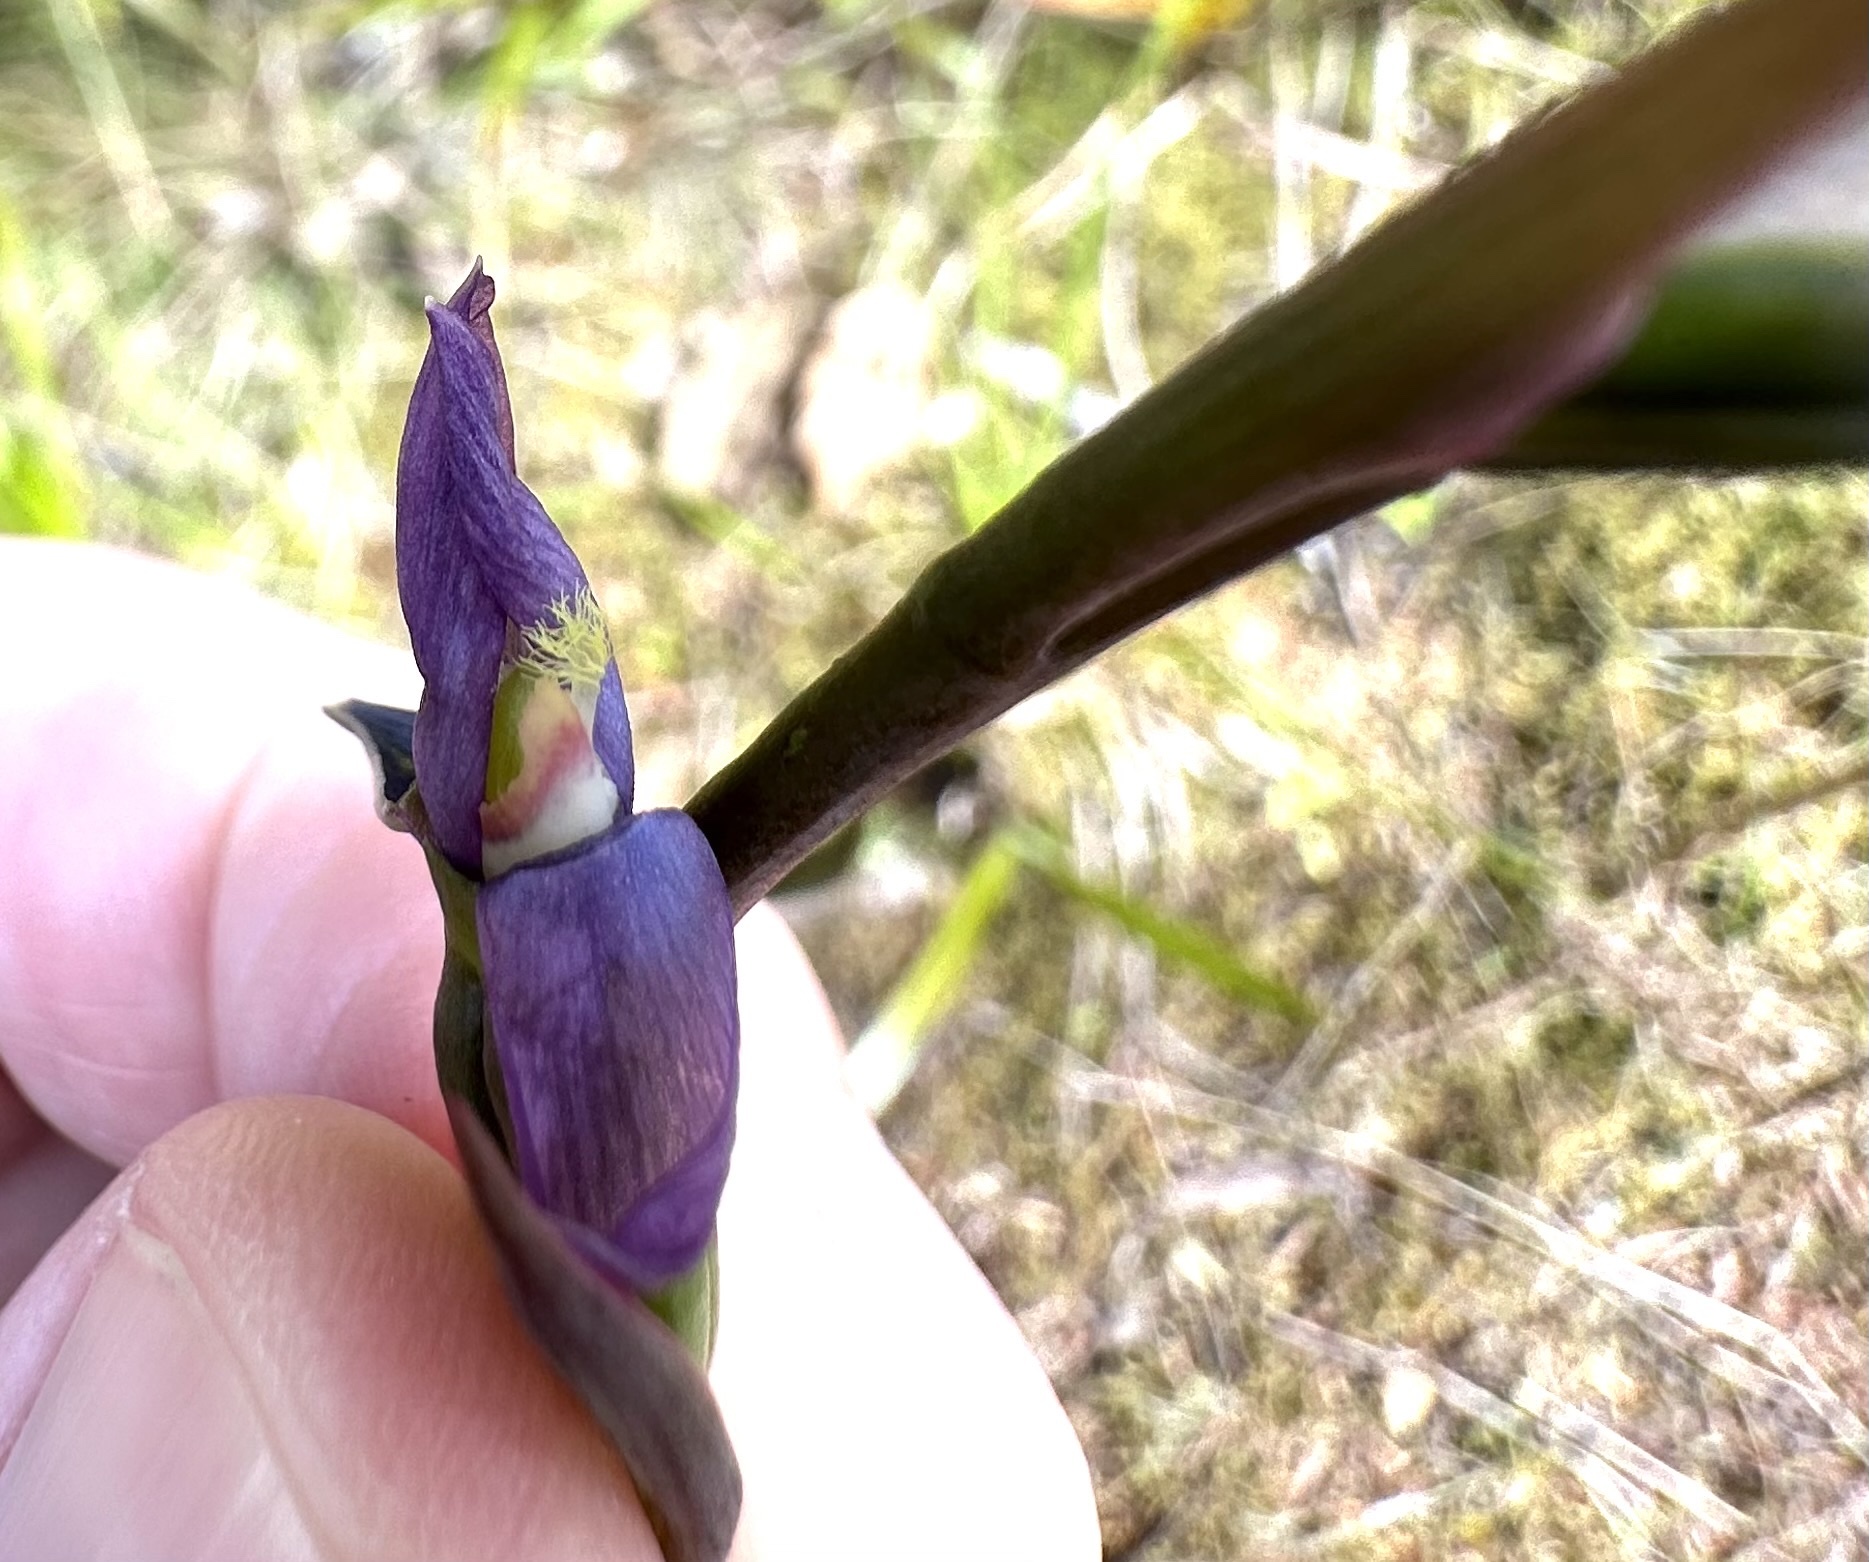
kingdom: Plantae
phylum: Tracheophyta
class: Liliopsida
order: Asparagales
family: Orchidaceae
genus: Thelymitra
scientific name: Thelymitra formosa
